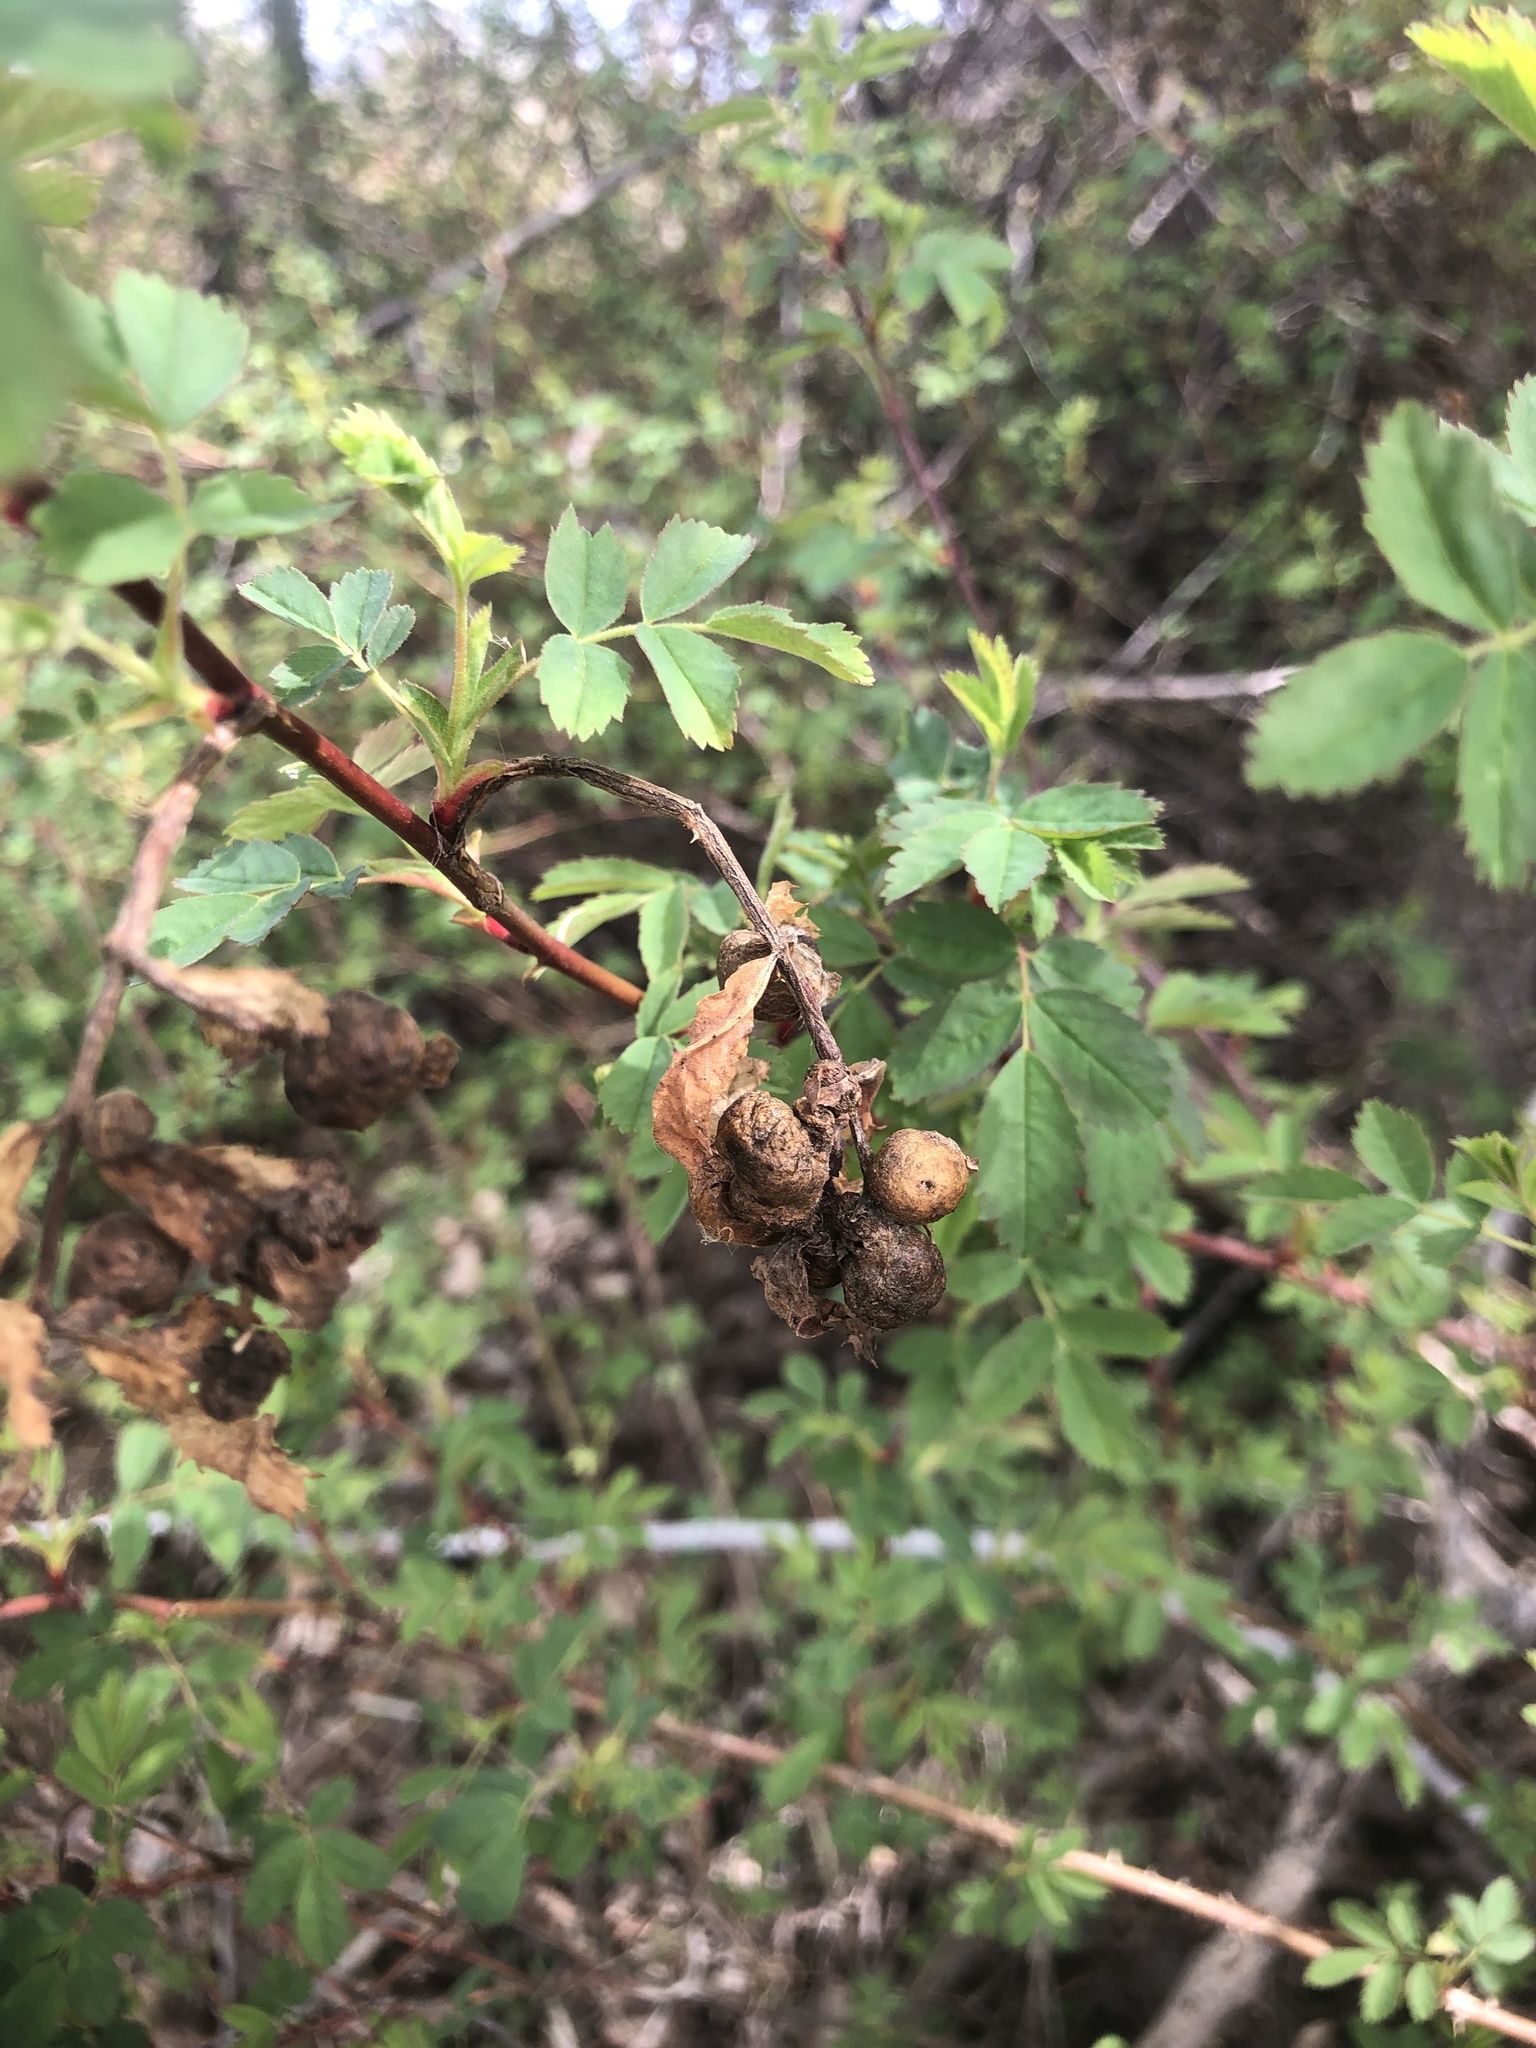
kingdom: Animalia
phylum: Arthropoda
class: Insecta
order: Hymenoptera
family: Cynipidae
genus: Diplolepis
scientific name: Diplolepis variabilis
